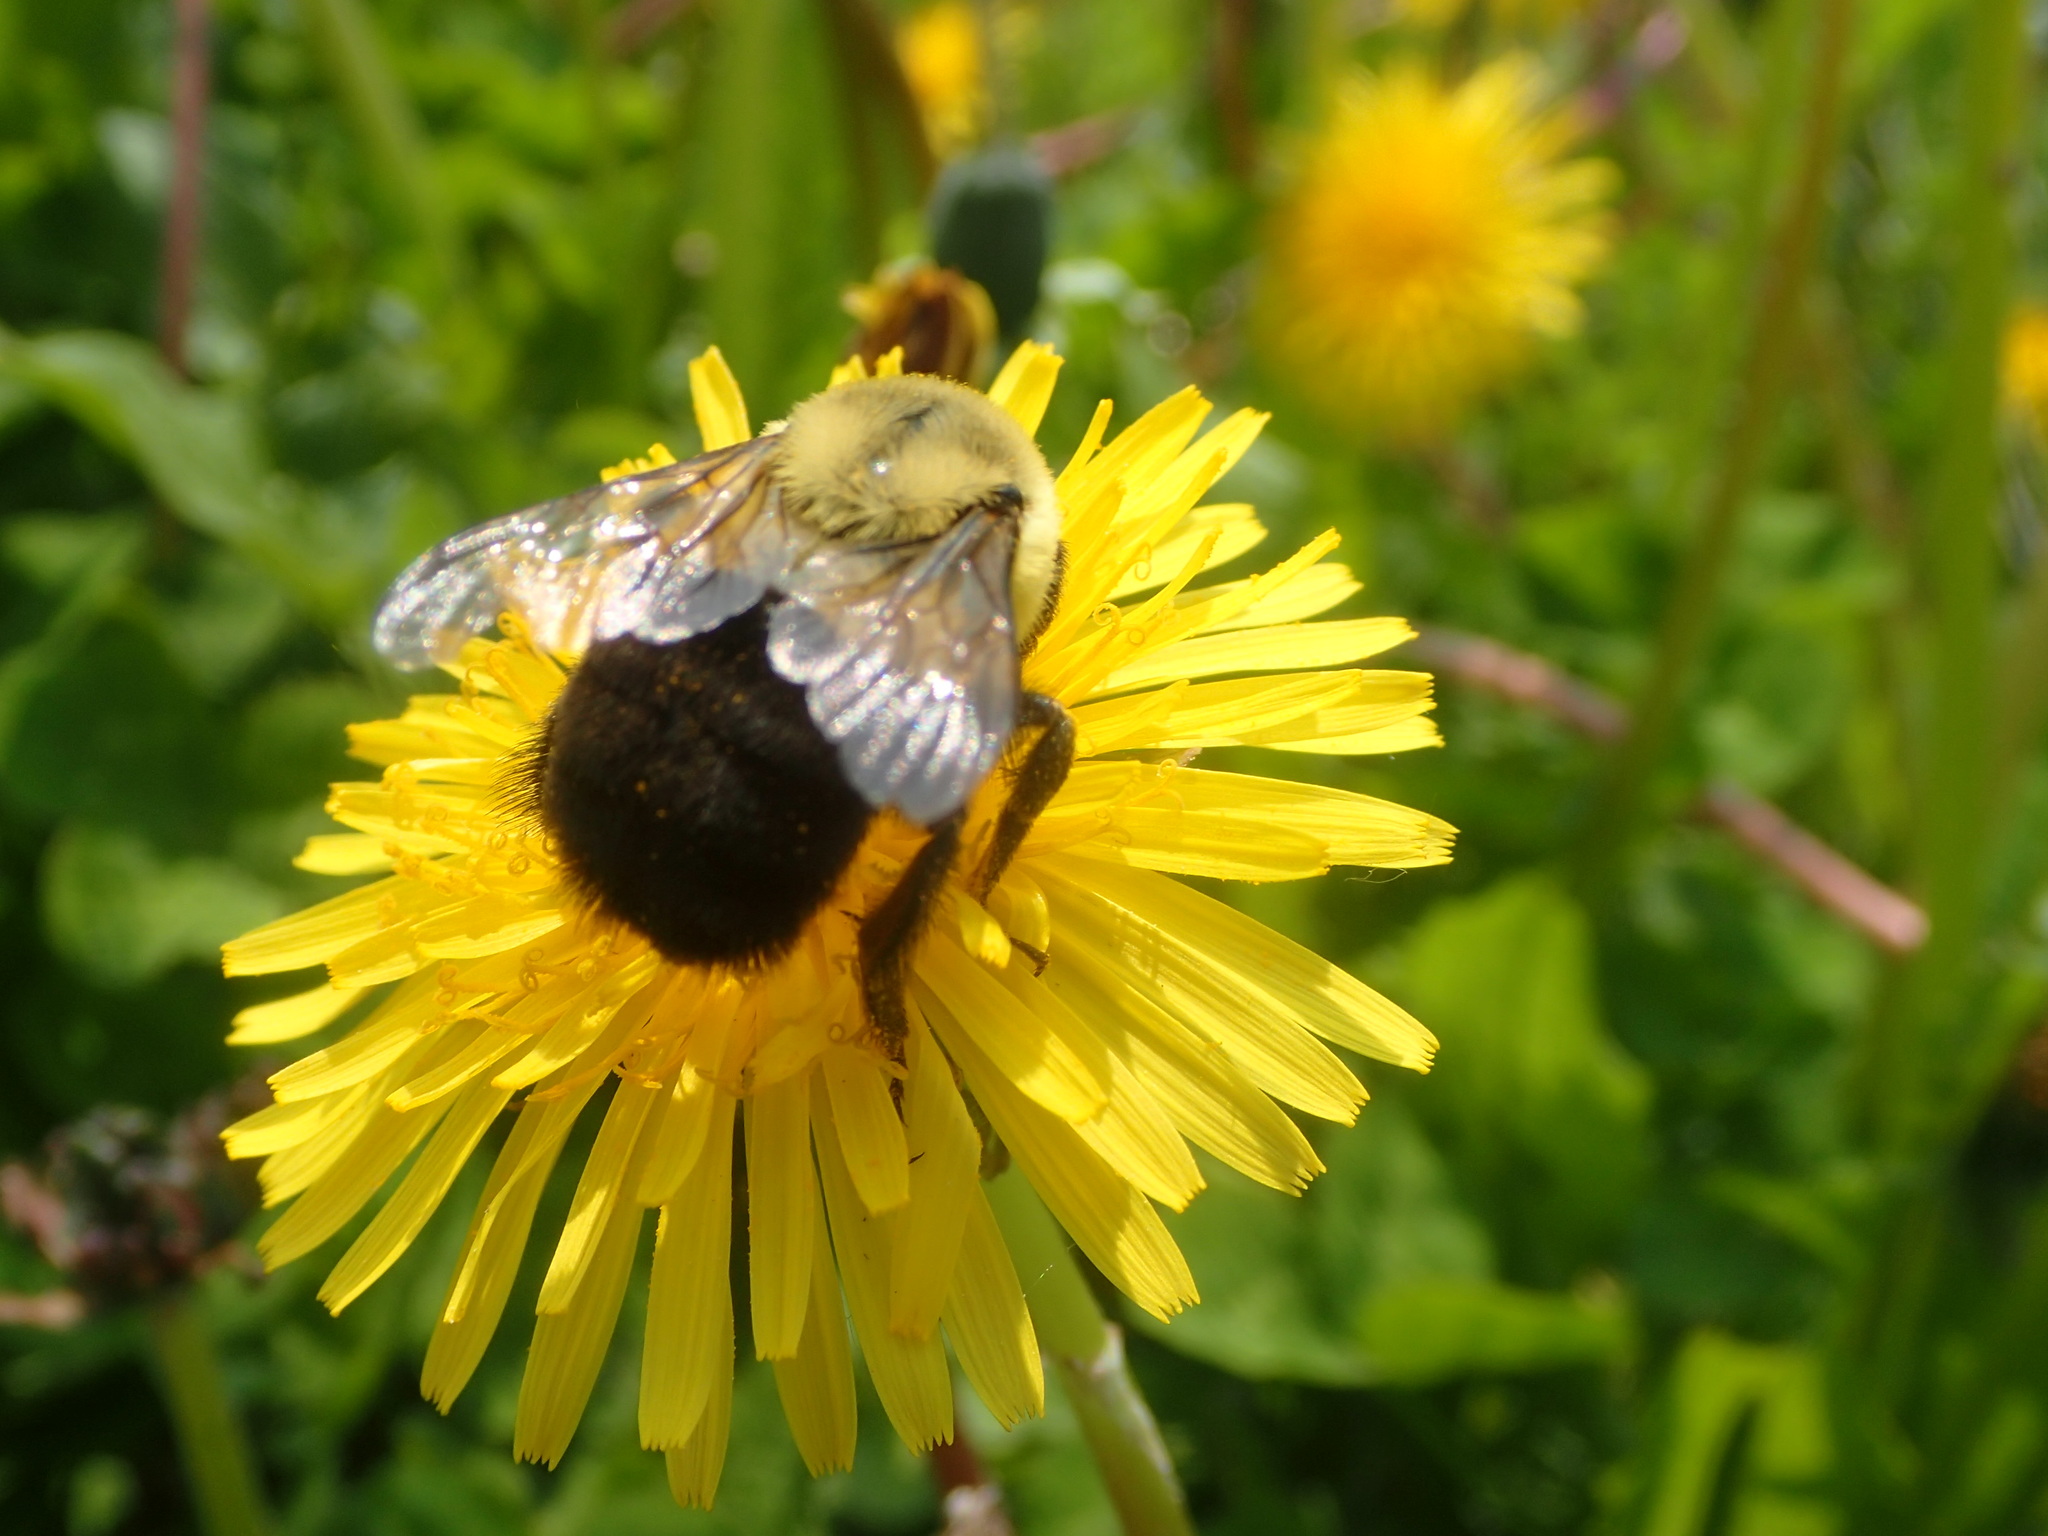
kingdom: Animalia
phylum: Arthropoda
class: Insecta
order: Hymenoptera
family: Apidae
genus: Bombus
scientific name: Bombus impatiens
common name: Common eastern bumble bee
